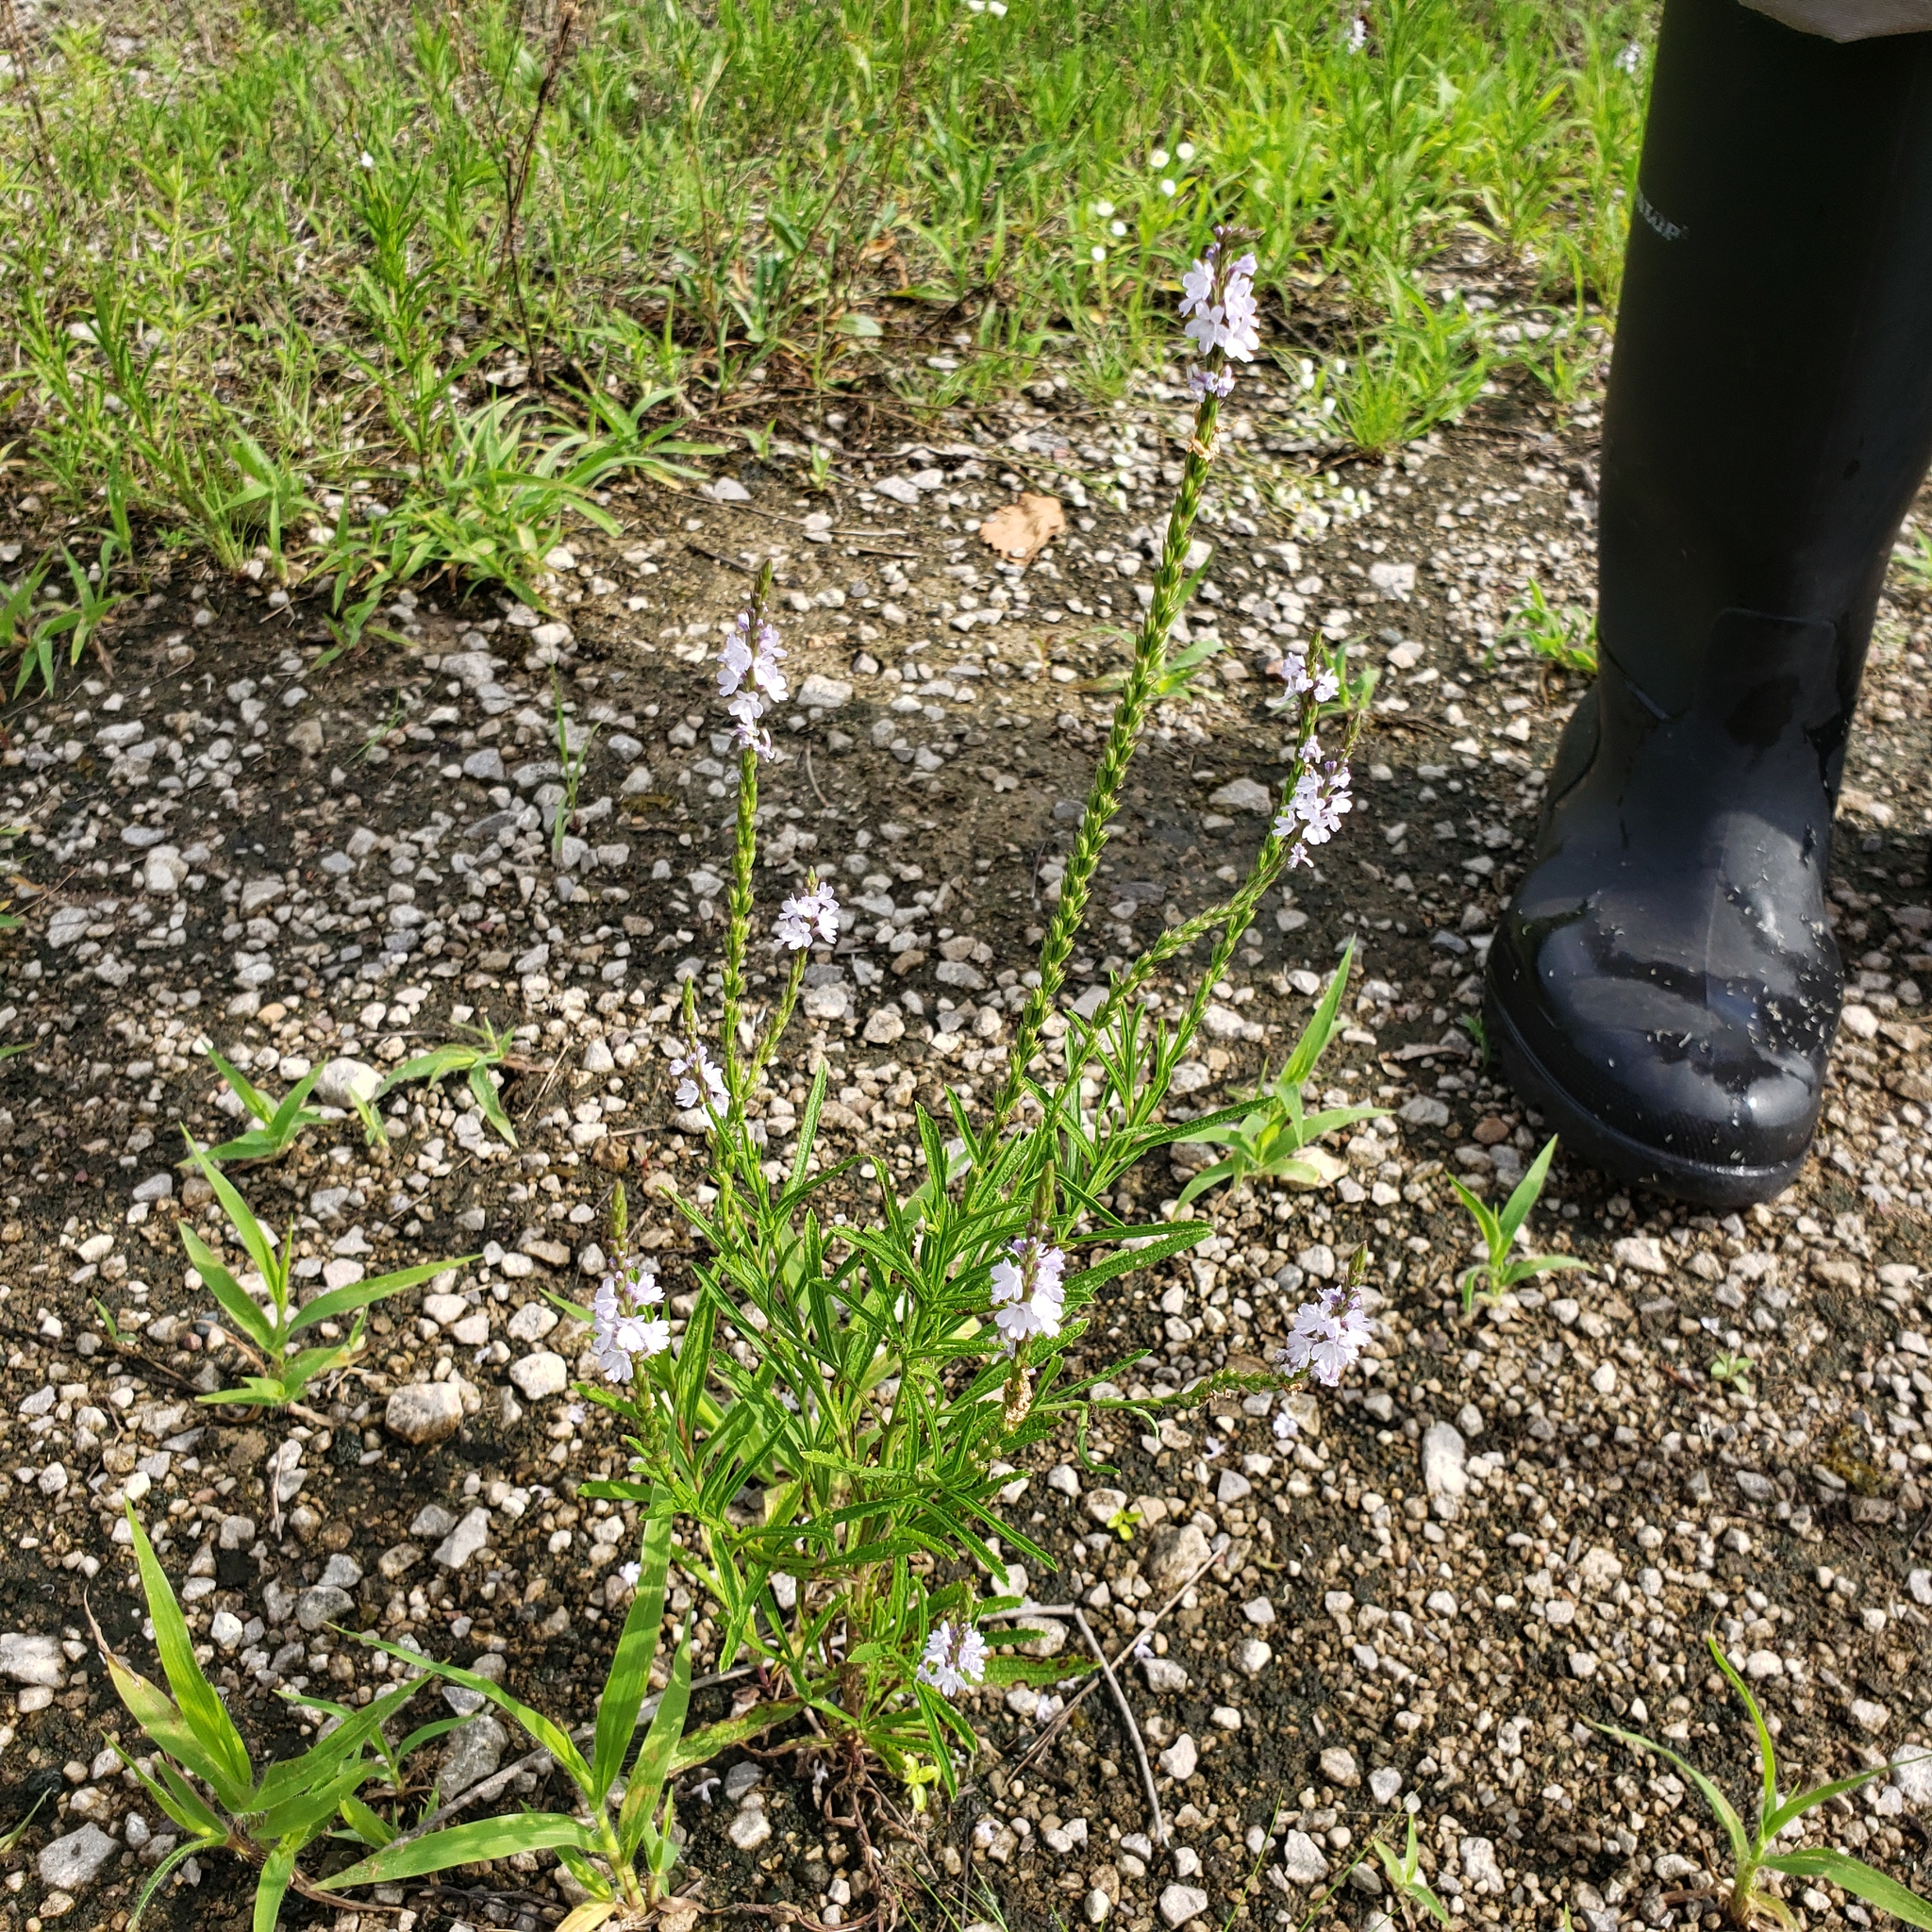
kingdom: Plantae
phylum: Tracheophyta
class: Magnoliopsida
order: Lamiales
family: Verbenaceae
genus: Verbena
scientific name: Verbena simplex
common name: Narrow-leaf vervain
